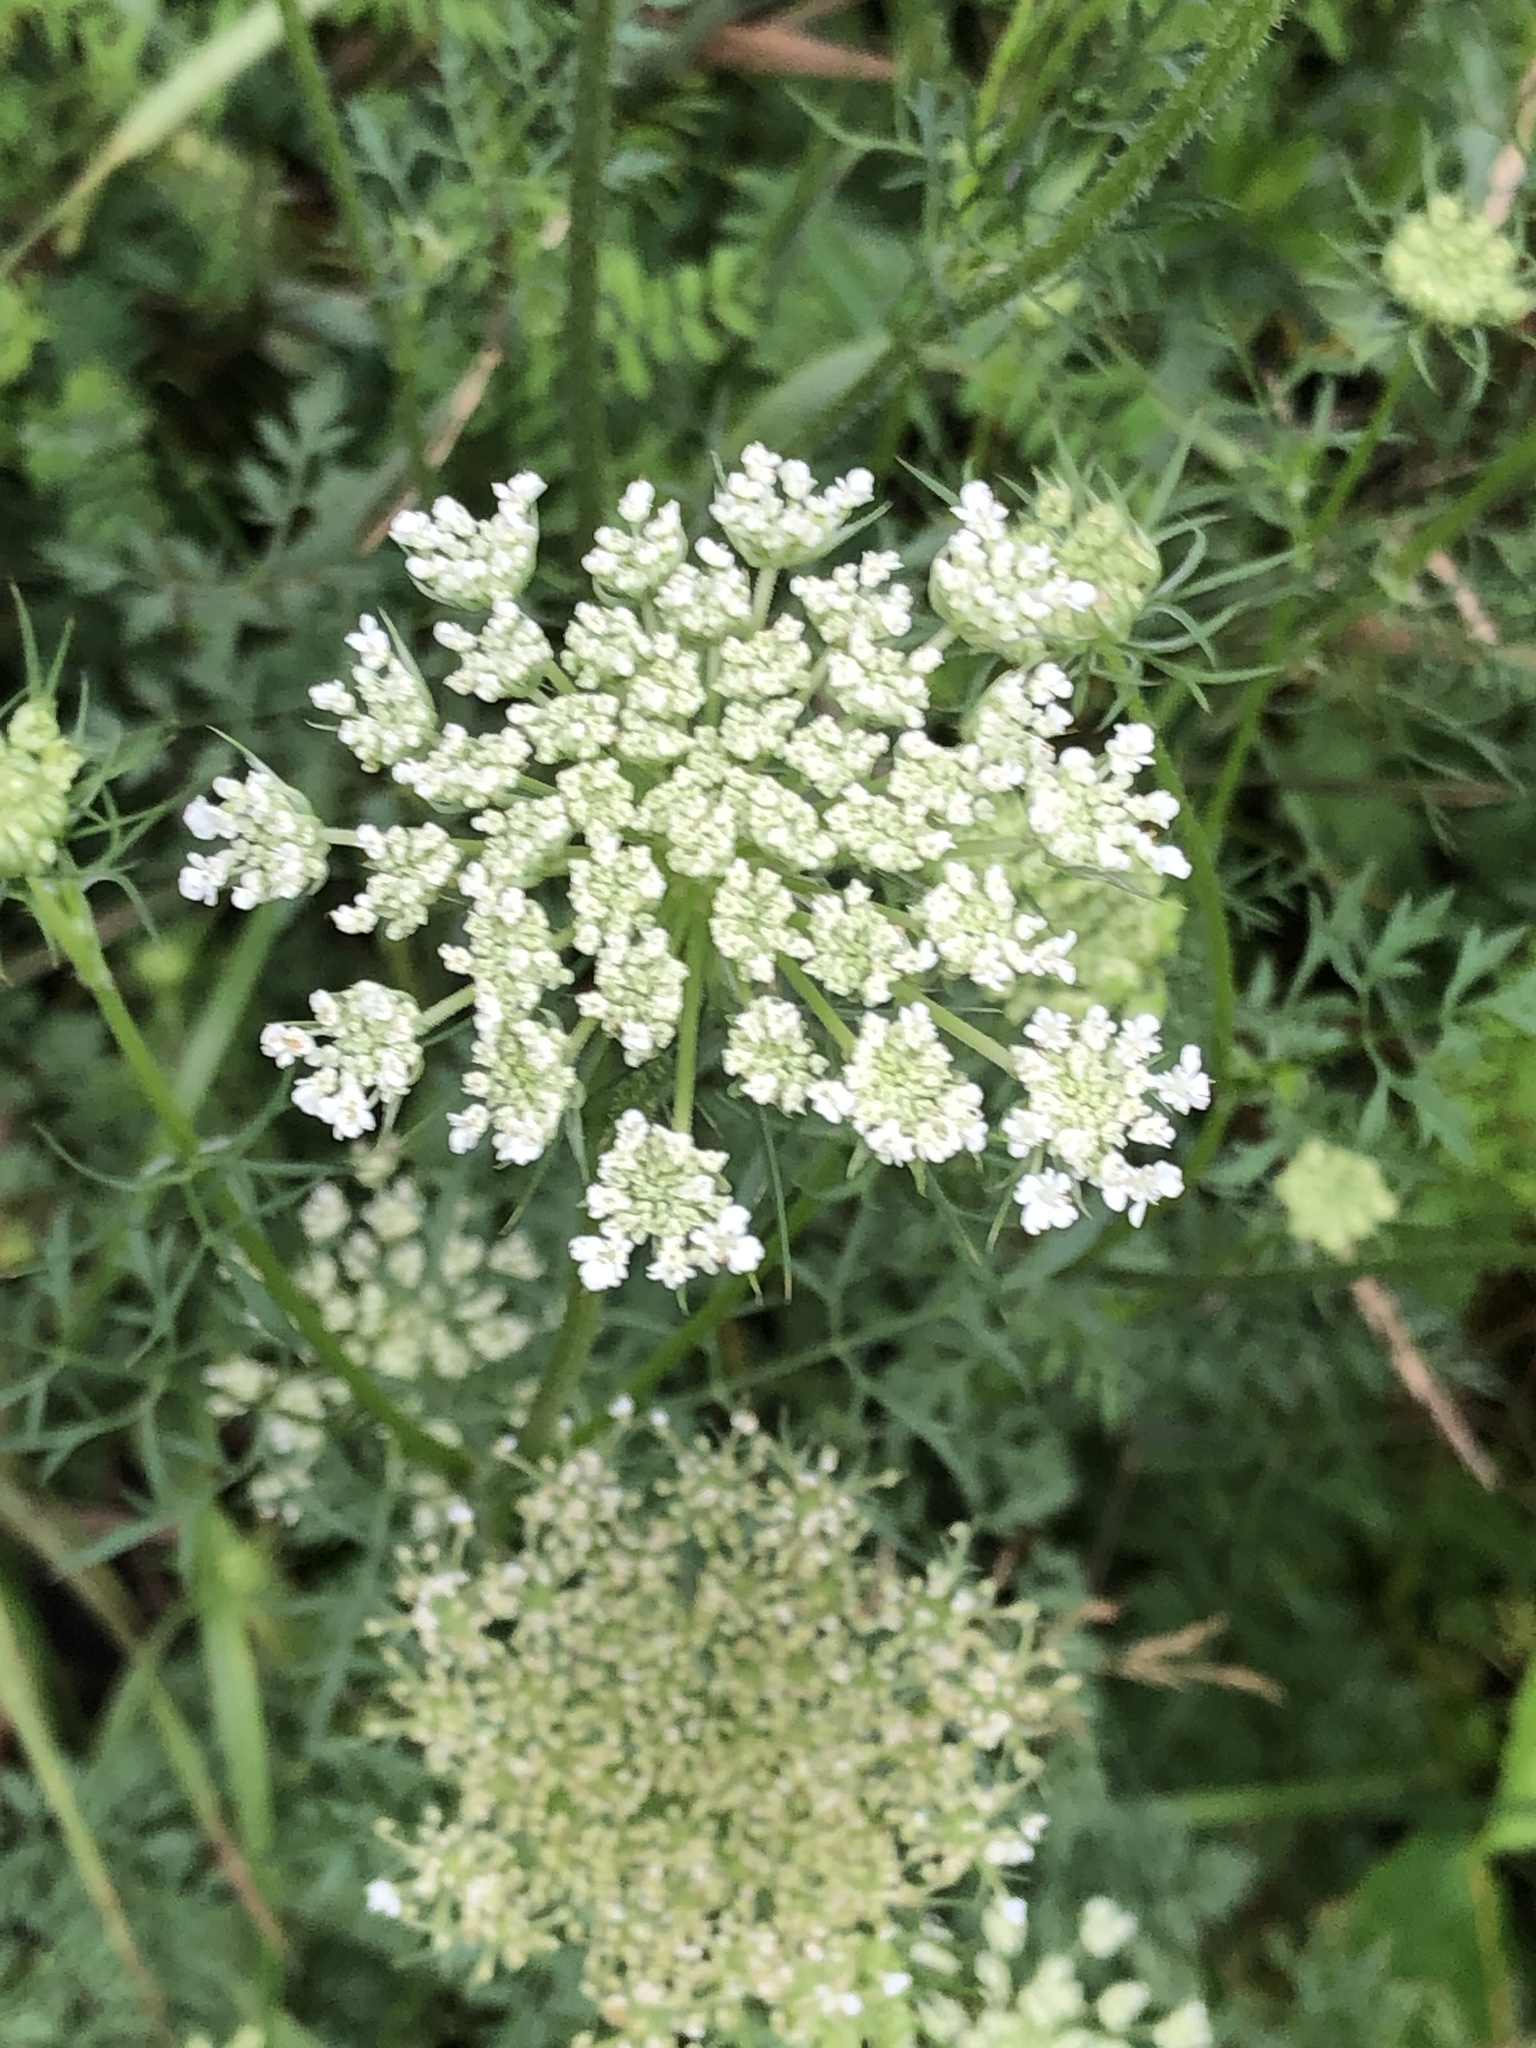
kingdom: Plantae
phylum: Tracheophyta
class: Magnoliopsida
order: Apiales
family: Apiaceae
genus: Daucus
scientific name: Daucus carota
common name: Wild carrot
